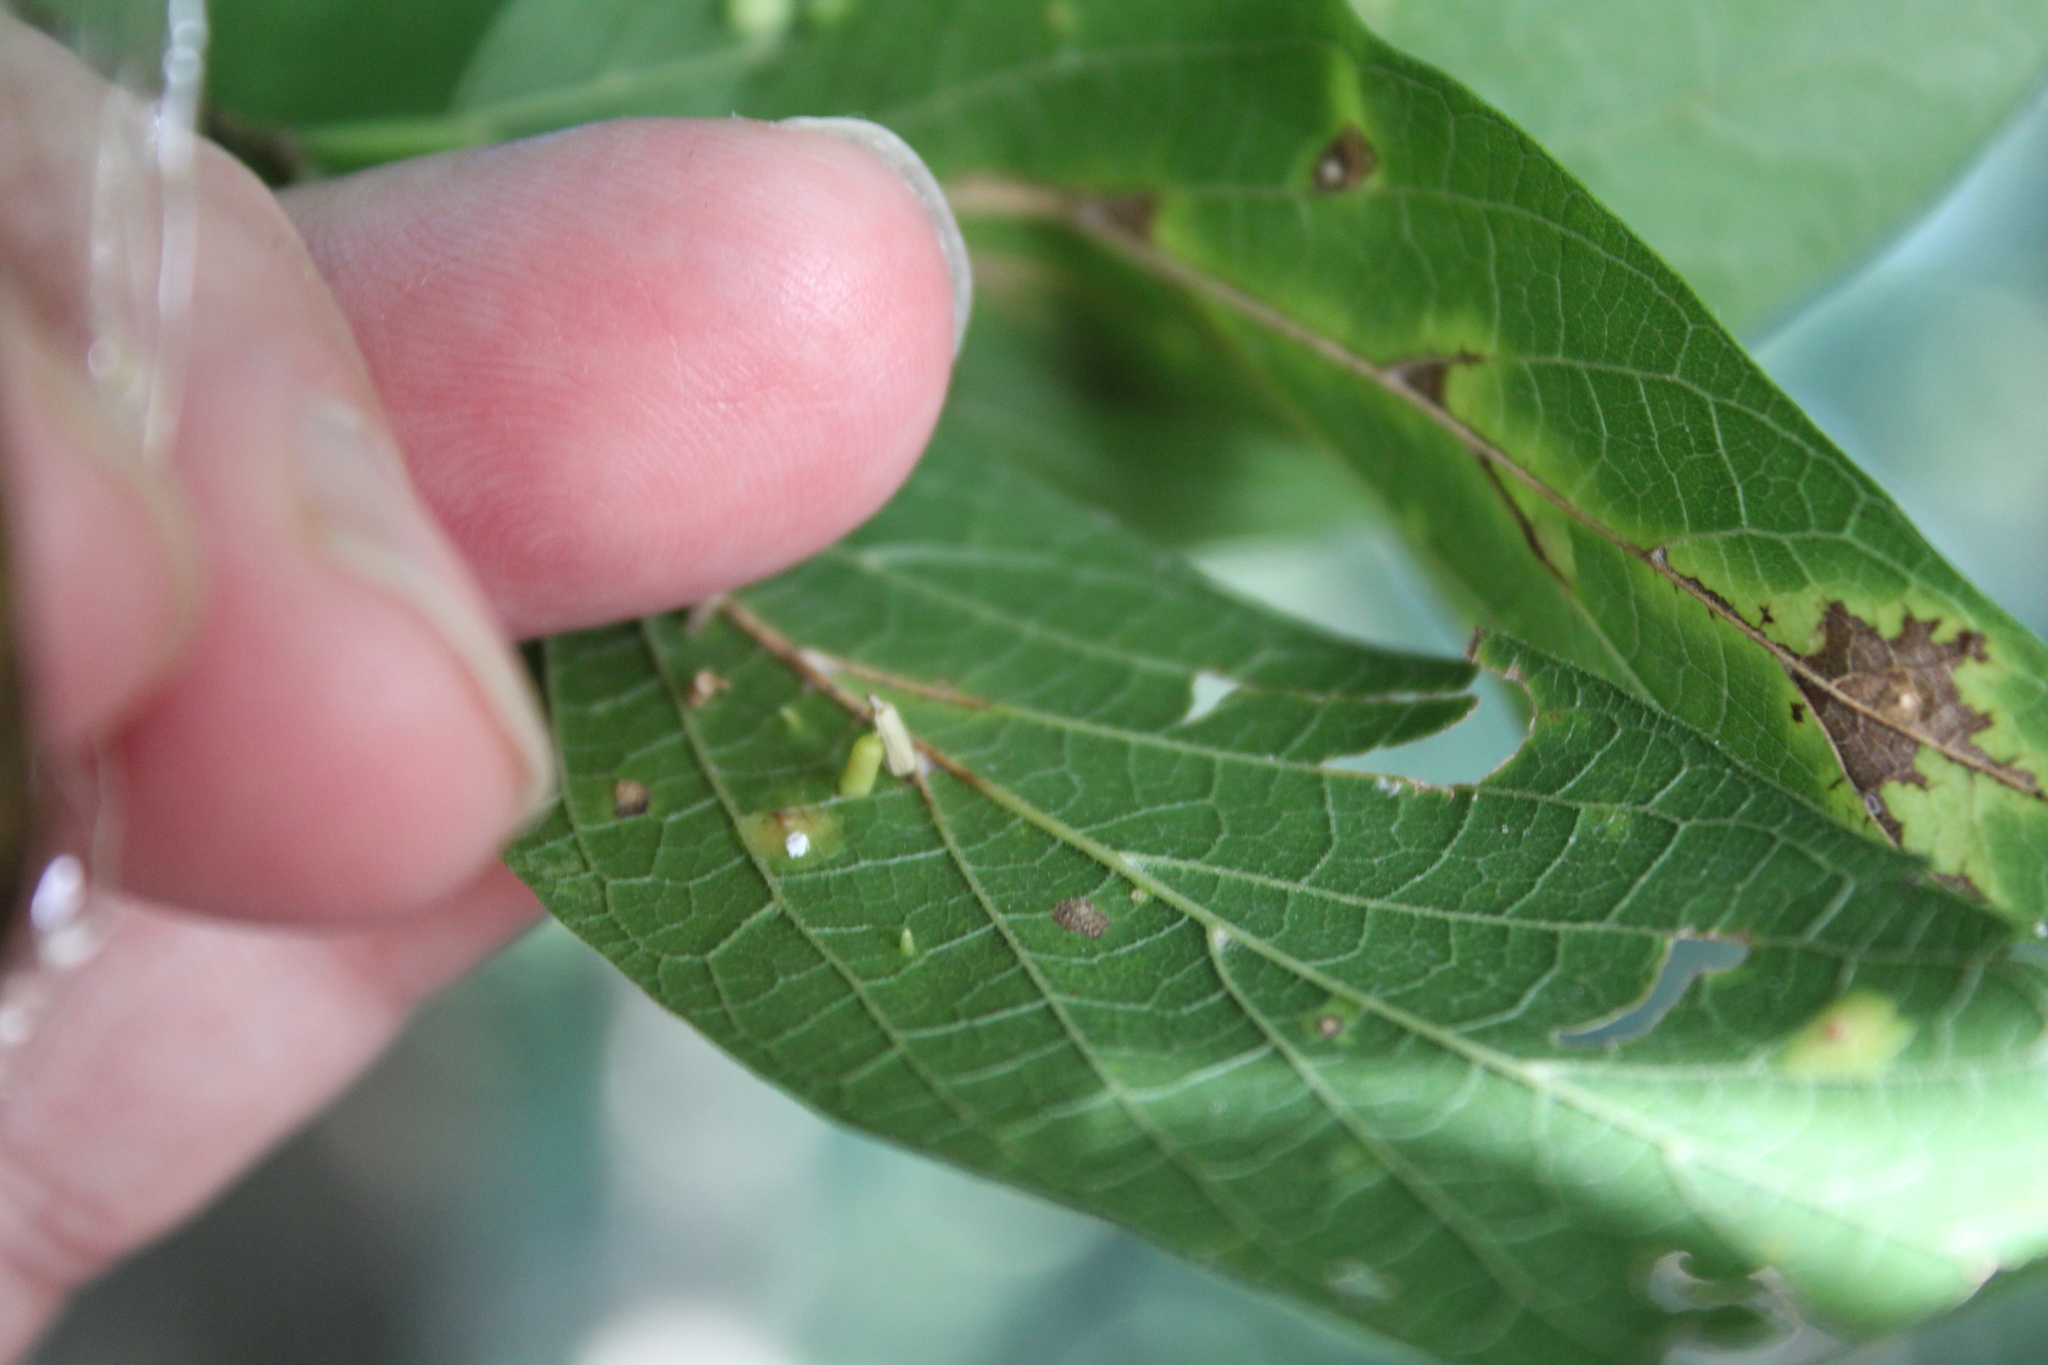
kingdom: Animalia
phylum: Arthropoda
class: Insecta
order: Diptera
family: Cecidomyiidae
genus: Celticecis
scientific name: Celticecis aciculata
